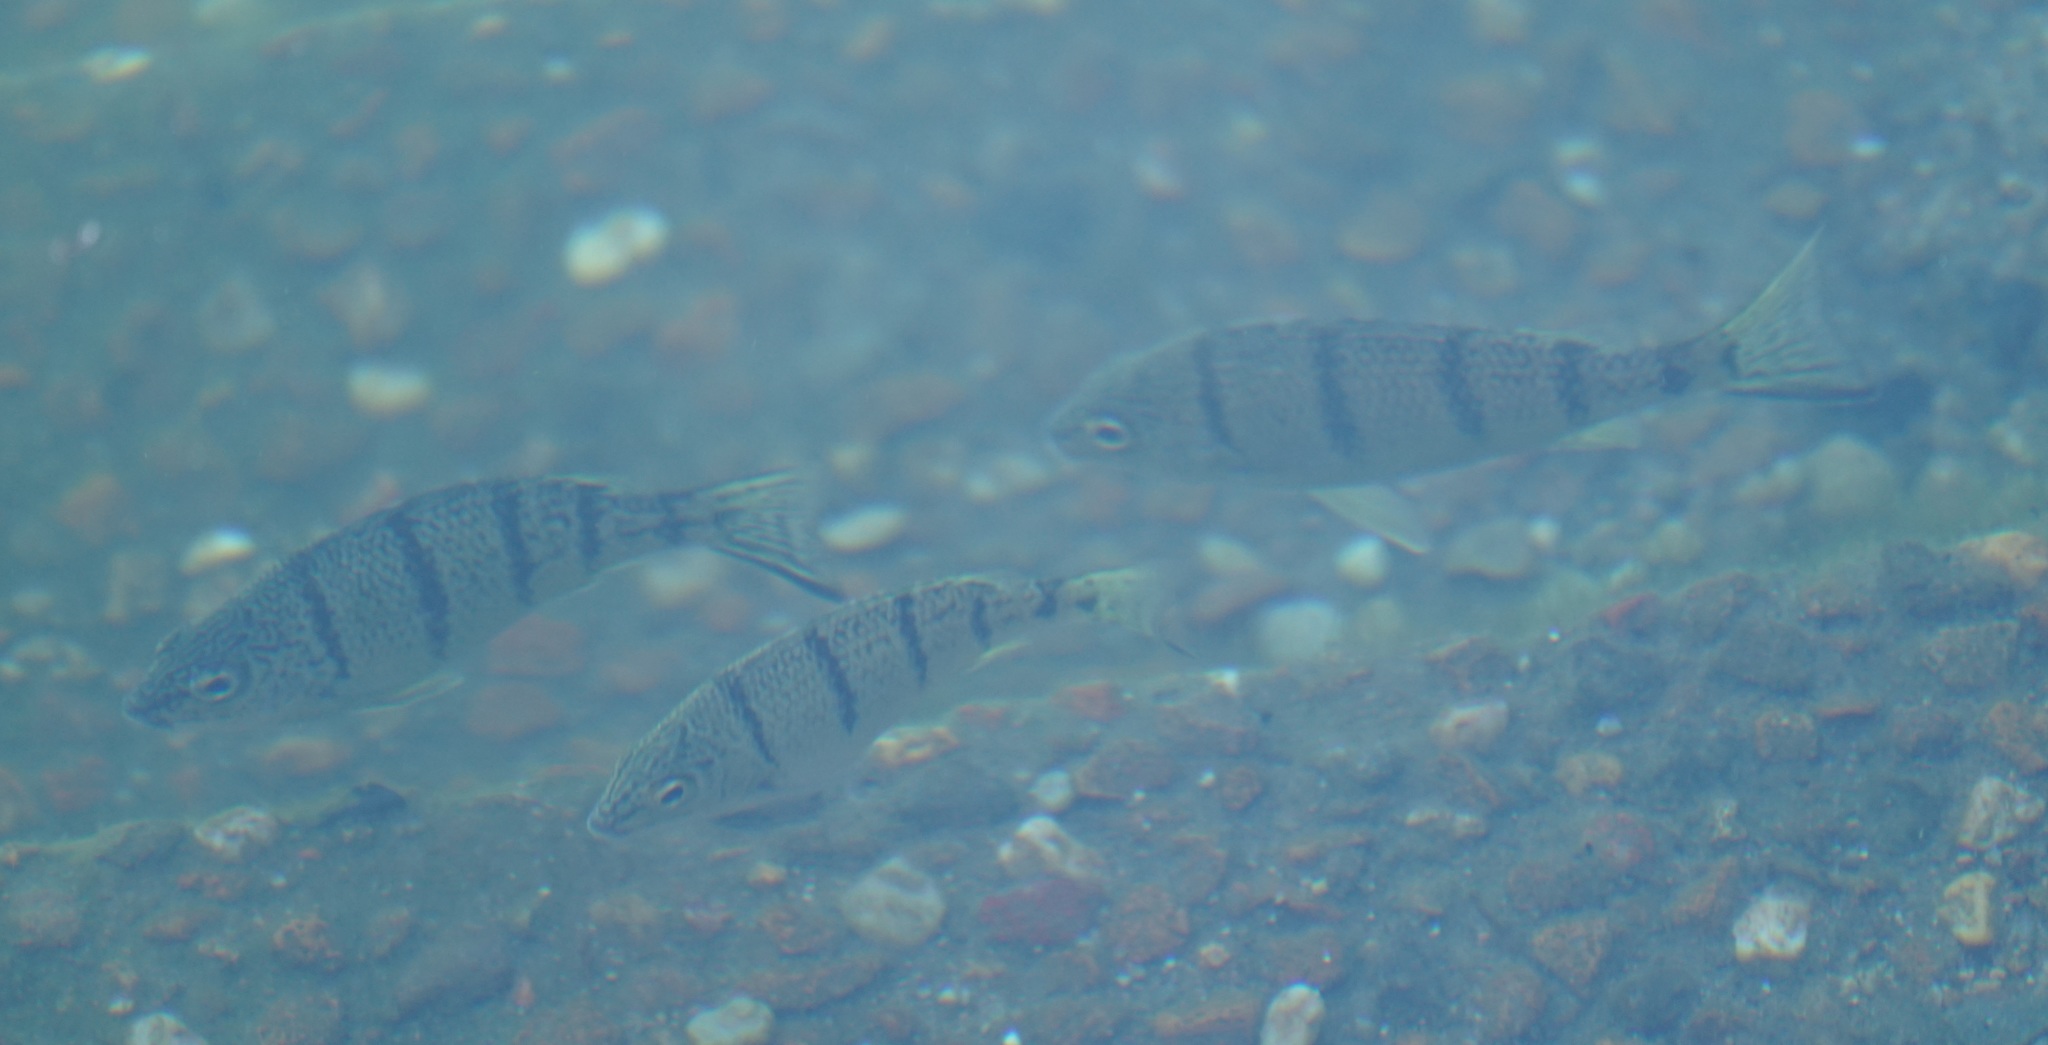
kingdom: Animalia
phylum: Chordata
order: Perciformes
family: Terapontidae
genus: Amniataba
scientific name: Amniataba percoides
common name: Banded grunter
